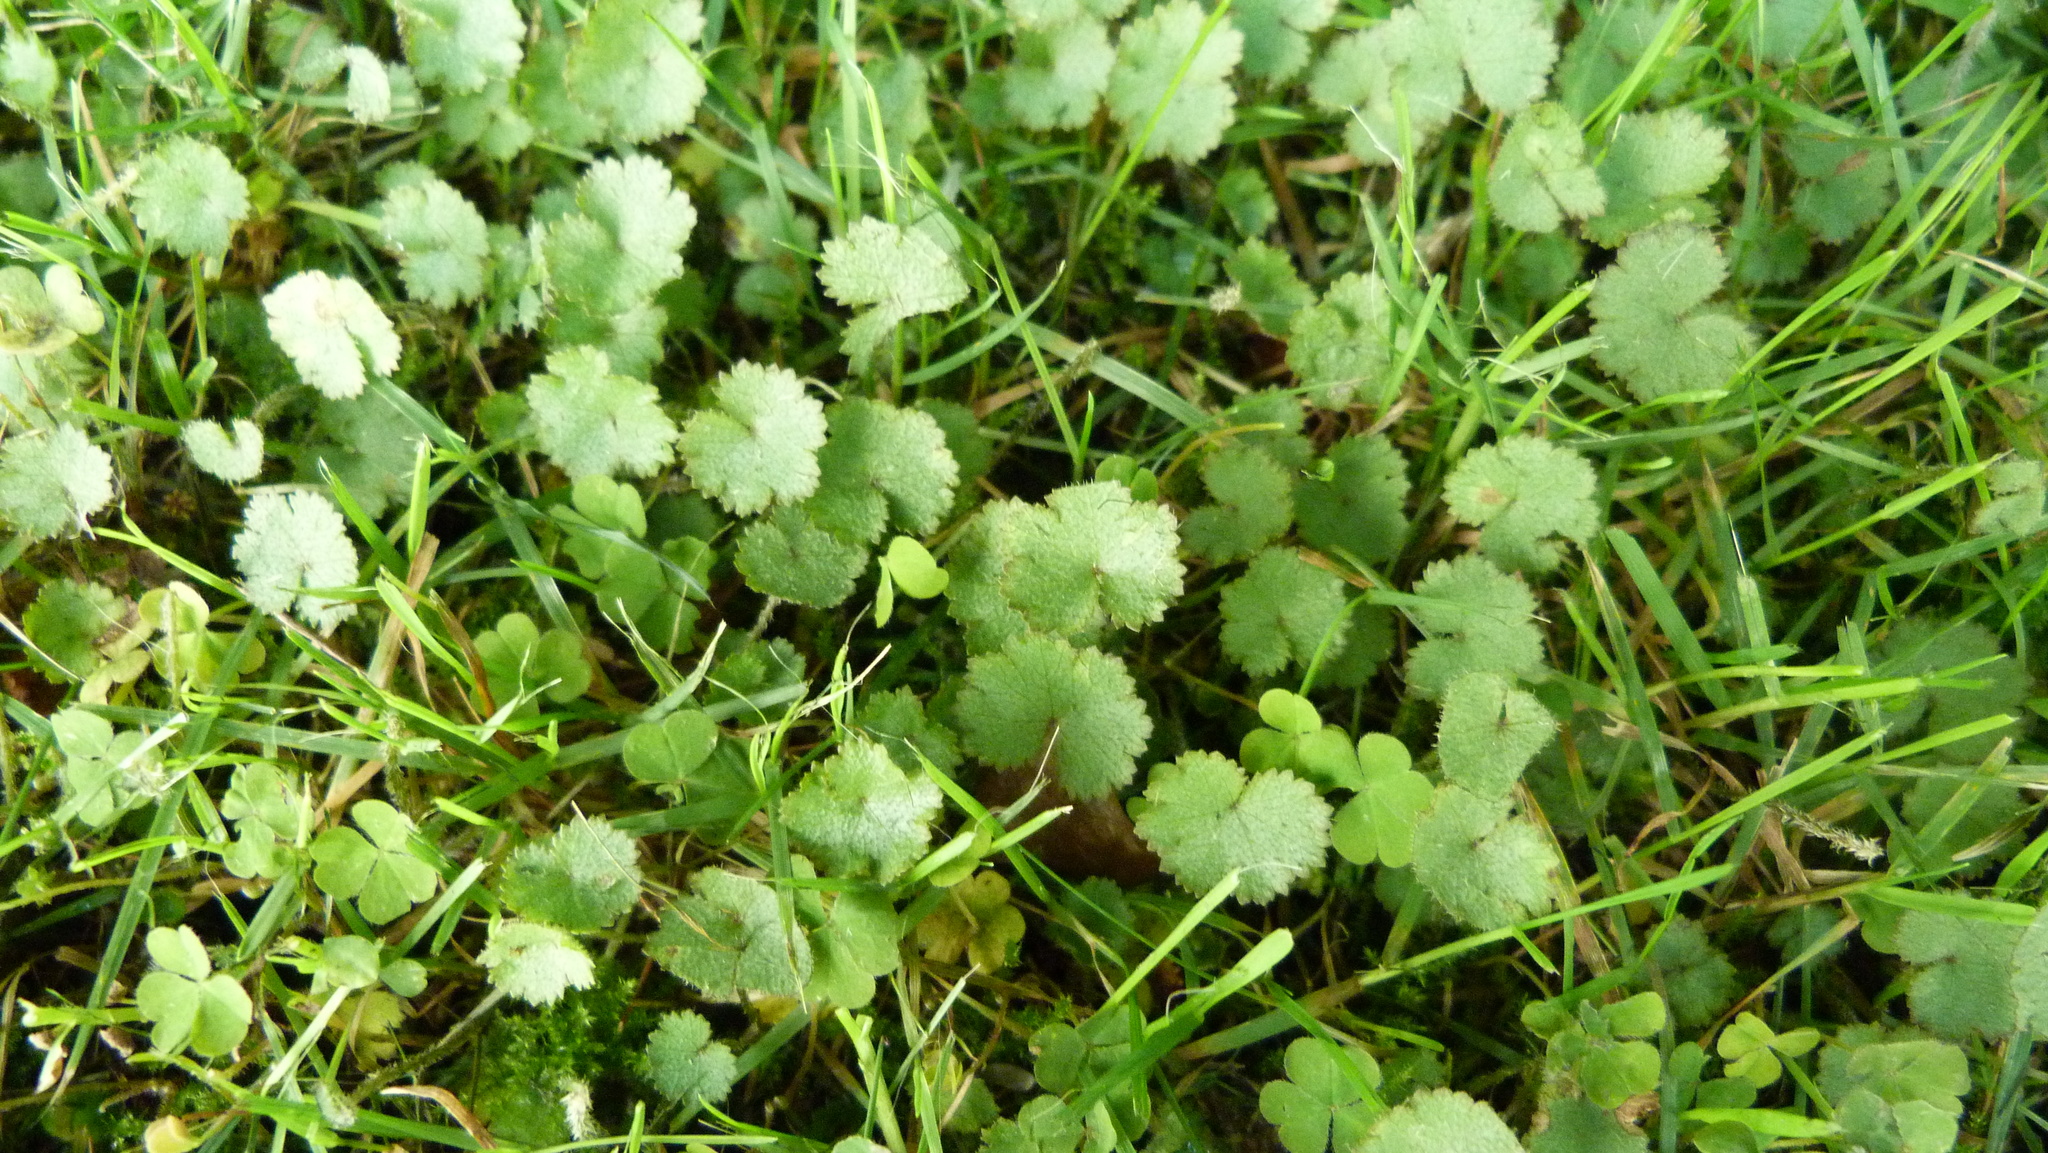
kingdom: Plantae
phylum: Tracheophyta
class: Magnoliopsida
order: Apiales
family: Araliaceae
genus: Hydrocotyle
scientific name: Hydrocotyle moschata
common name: Hairy pennywort
